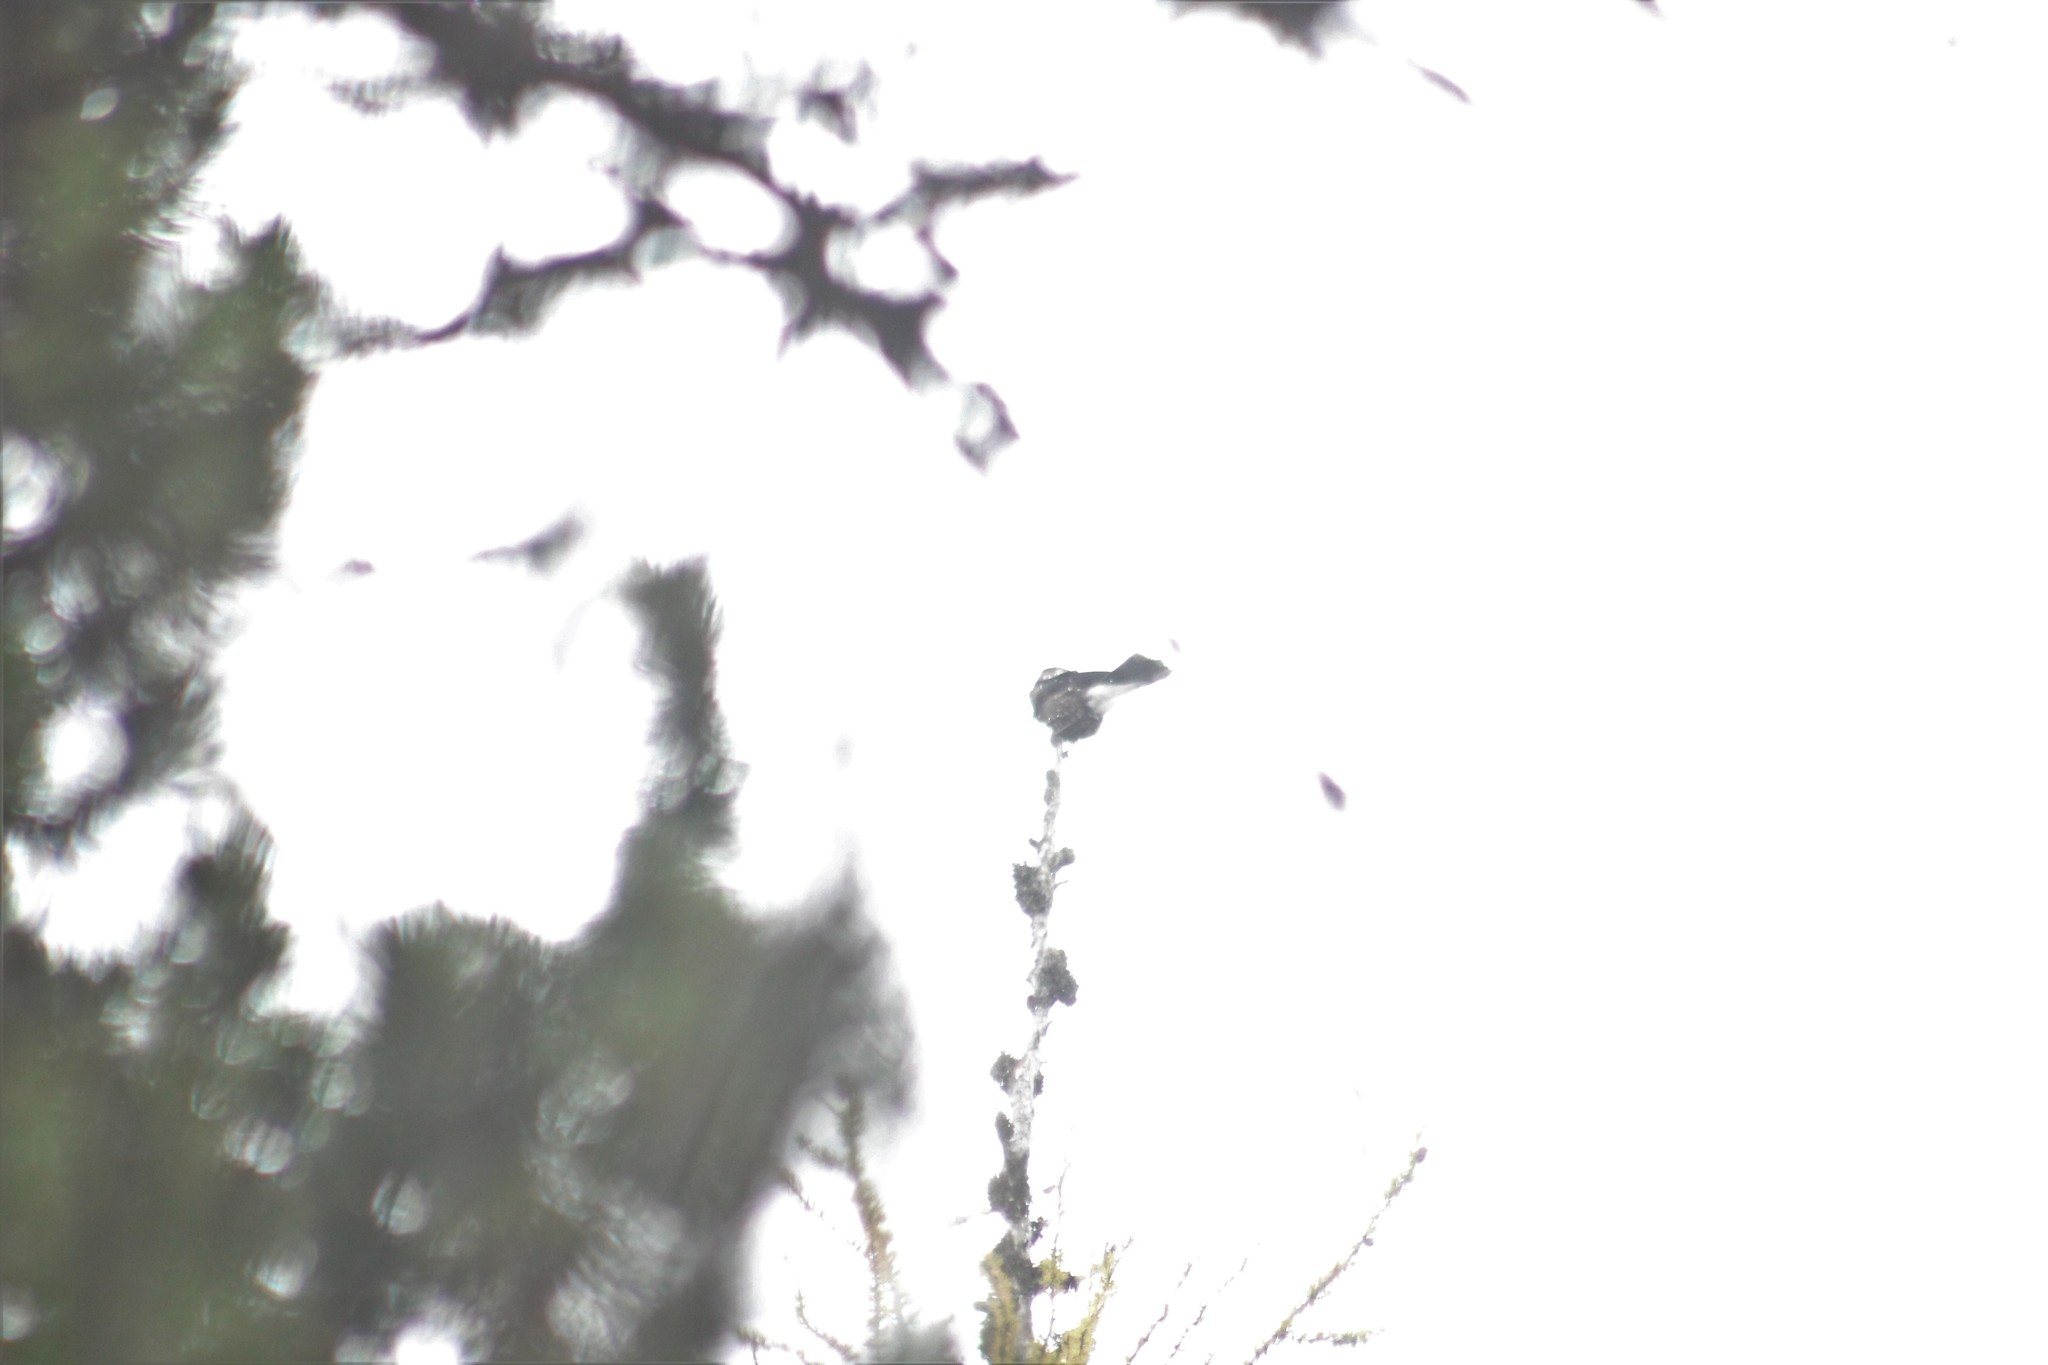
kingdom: Animalia
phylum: Chordata
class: Aves
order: Passeriformes
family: Corvidae
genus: Nucifraga
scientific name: Nucifraga caryocatactes
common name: Spotted nutcracker
